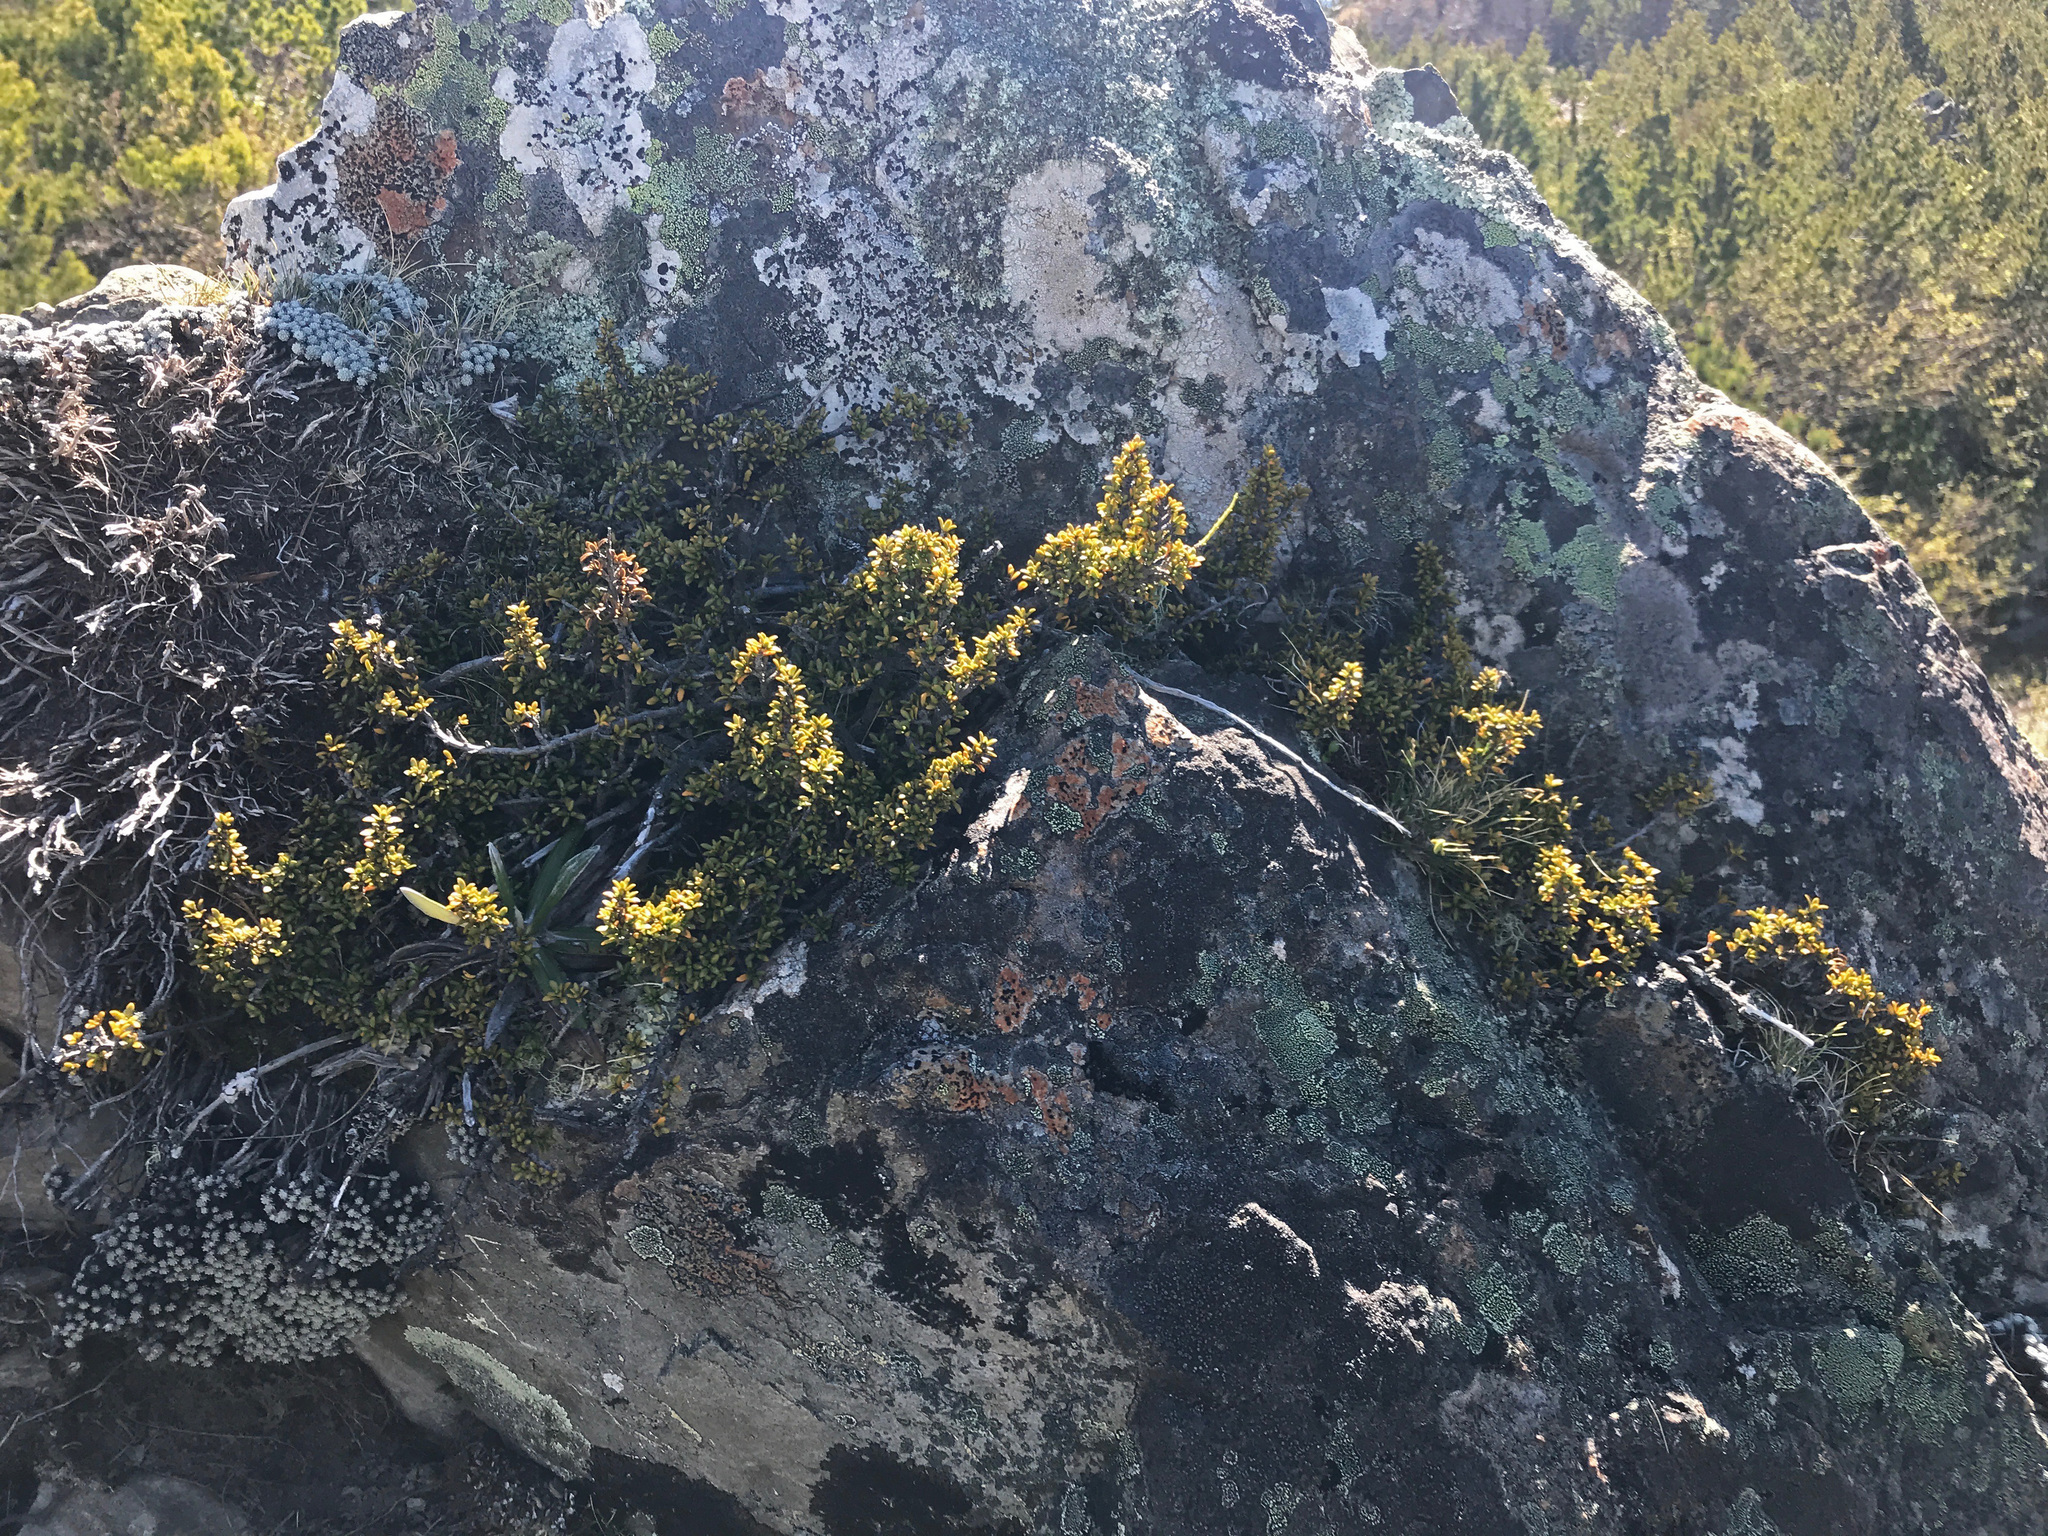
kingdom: Plantae
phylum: Tracheophyta
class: Magnoliopsida
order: Gentianales
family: Rubiaceae
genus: Coprosma
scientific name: Coprosma fowerakeri
